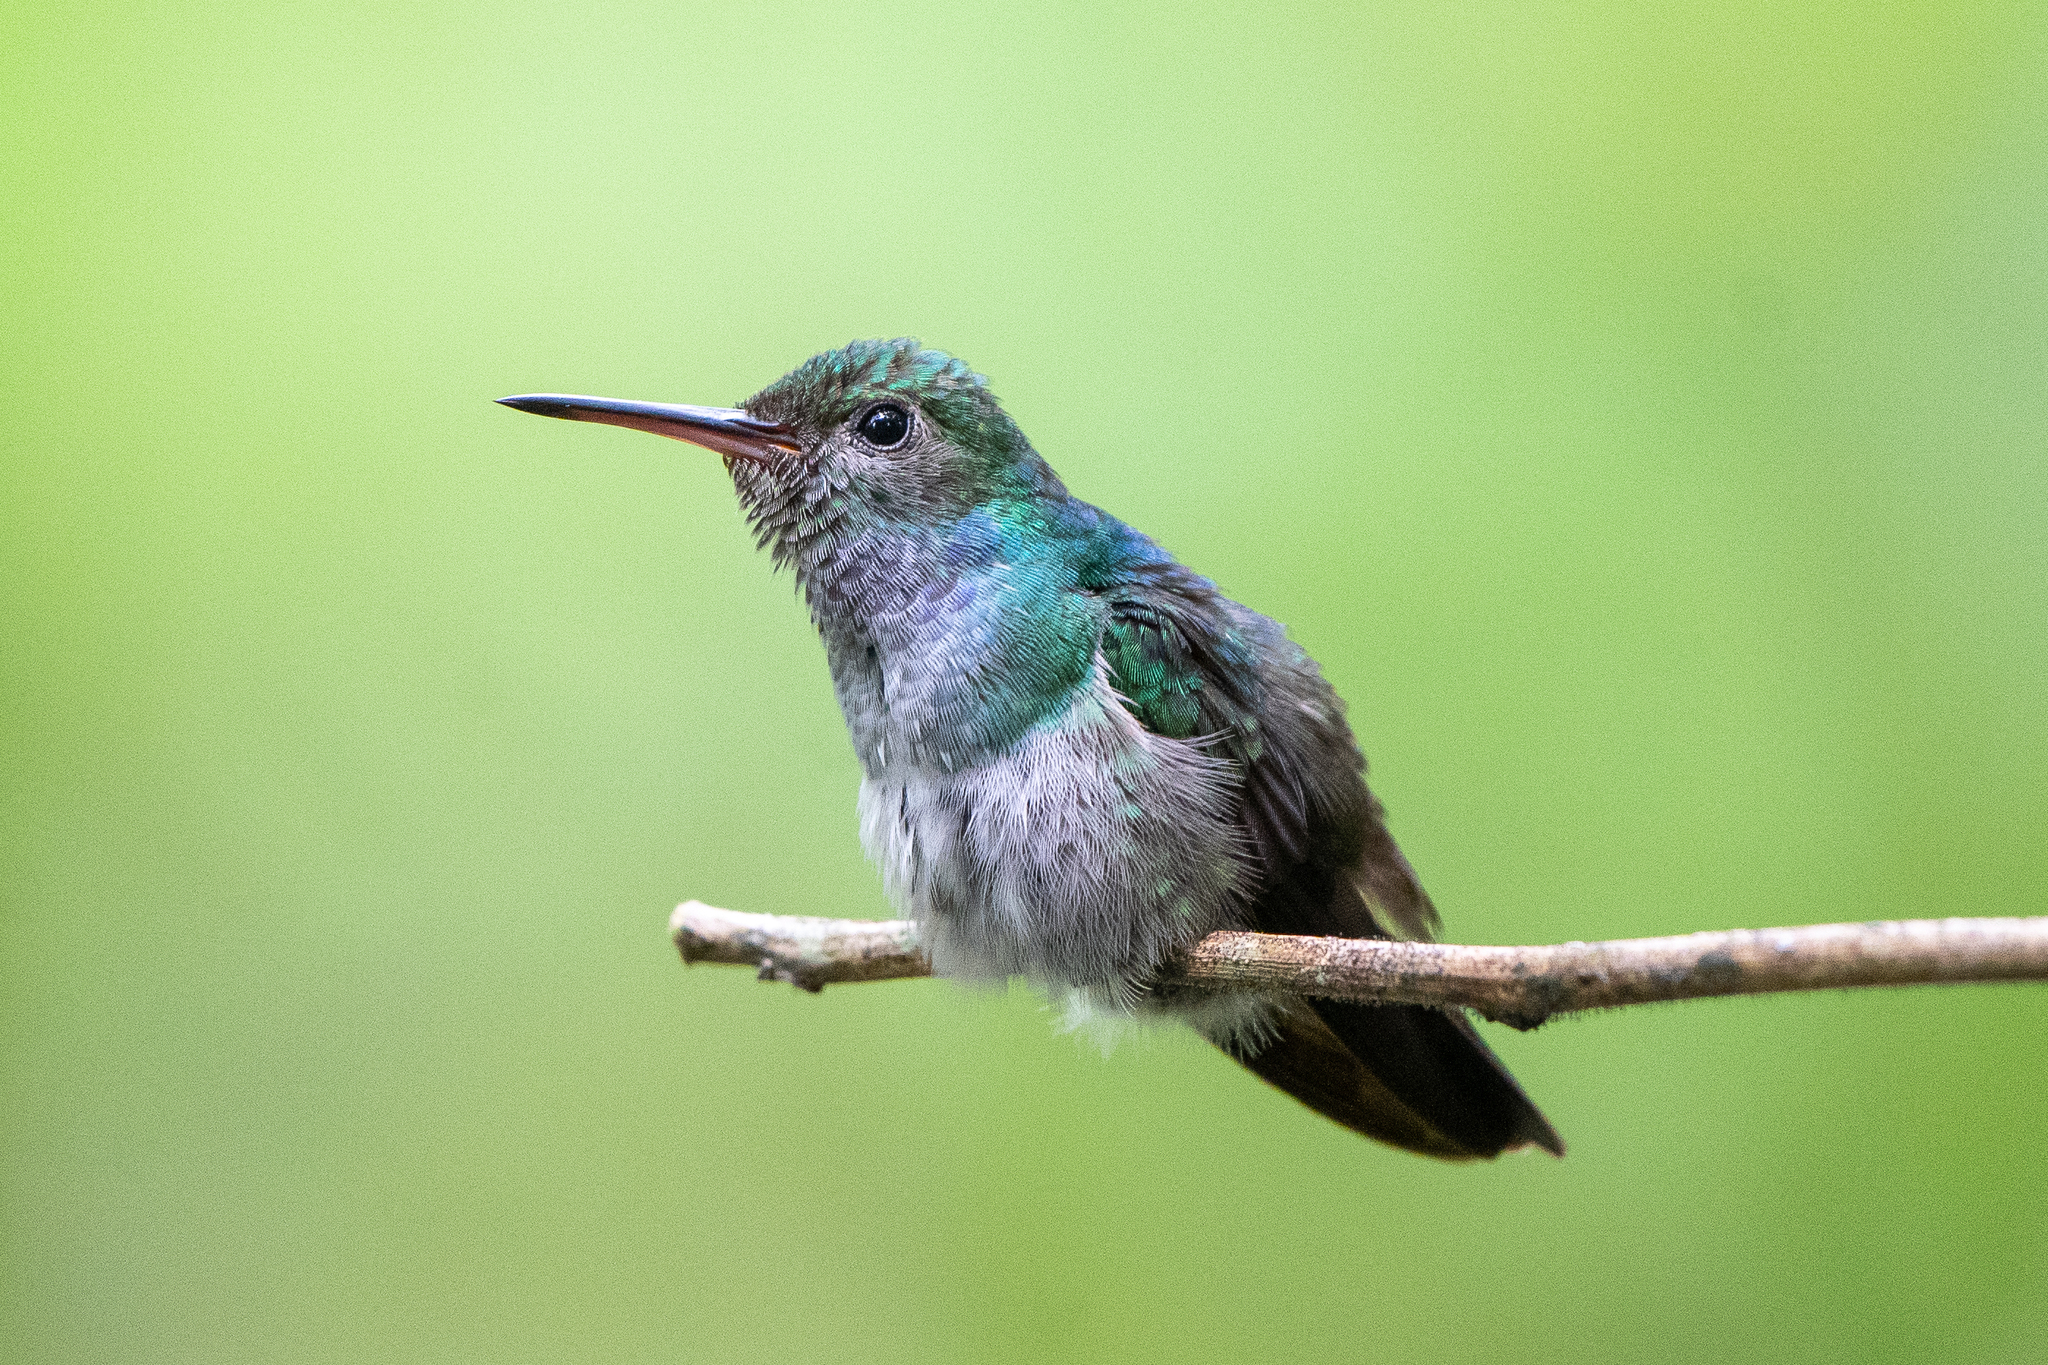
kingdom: Animalia
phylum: Chordata
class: Aves
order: Apodiformes
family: Trochilidae
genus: Polyerata
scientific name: Polyerata amabilis
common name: Blue-chested hummingbird
